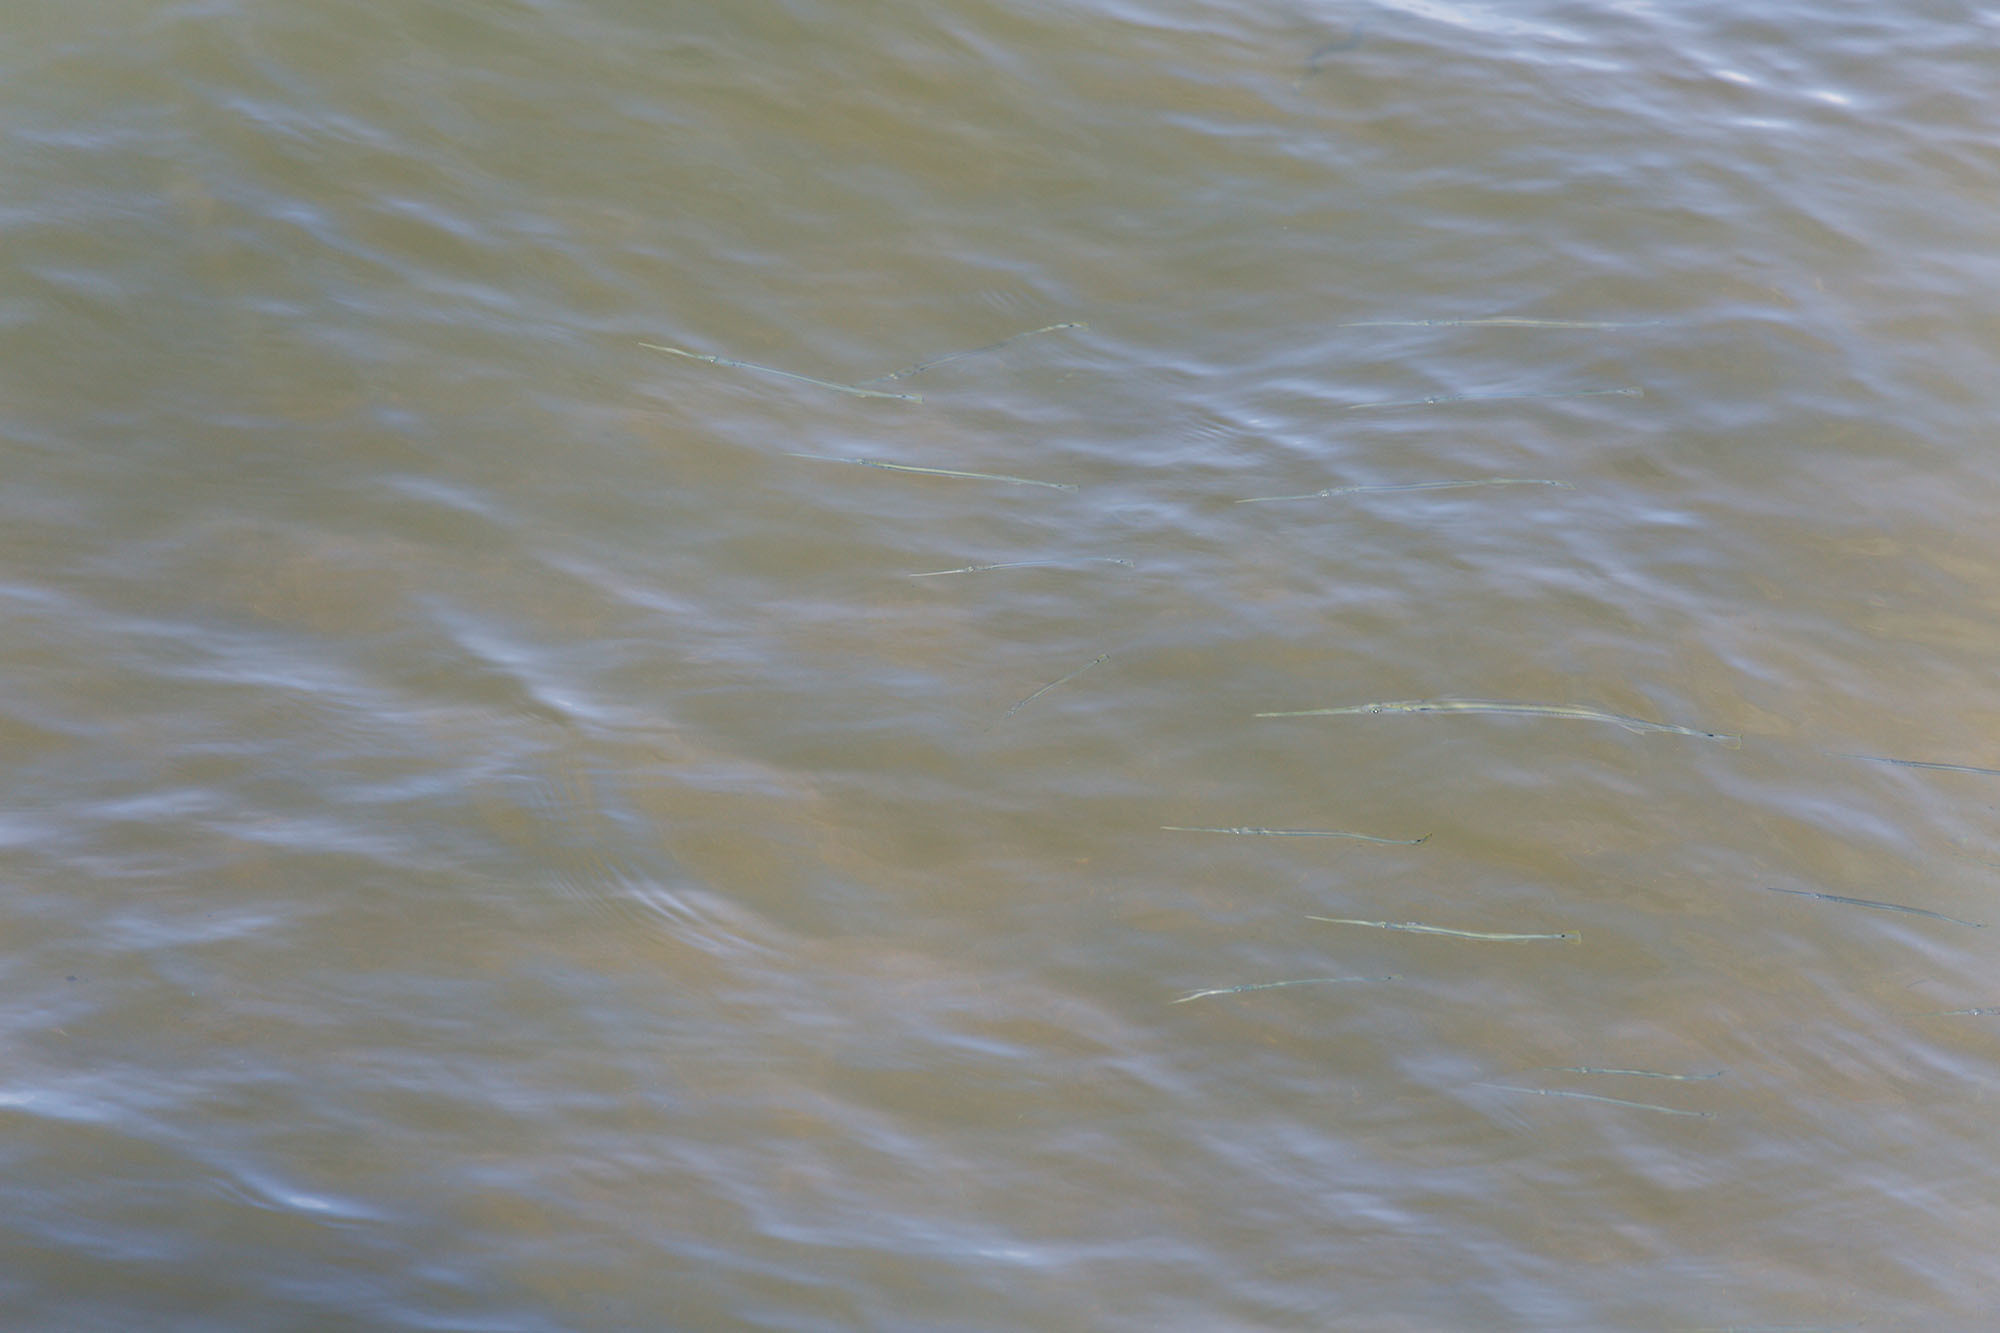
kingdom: Animalia
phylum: Chordata
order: Beloniformes
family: Belonidae
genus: Strongylura
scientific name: Strongylura strongylura
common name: Spottail needlefish
